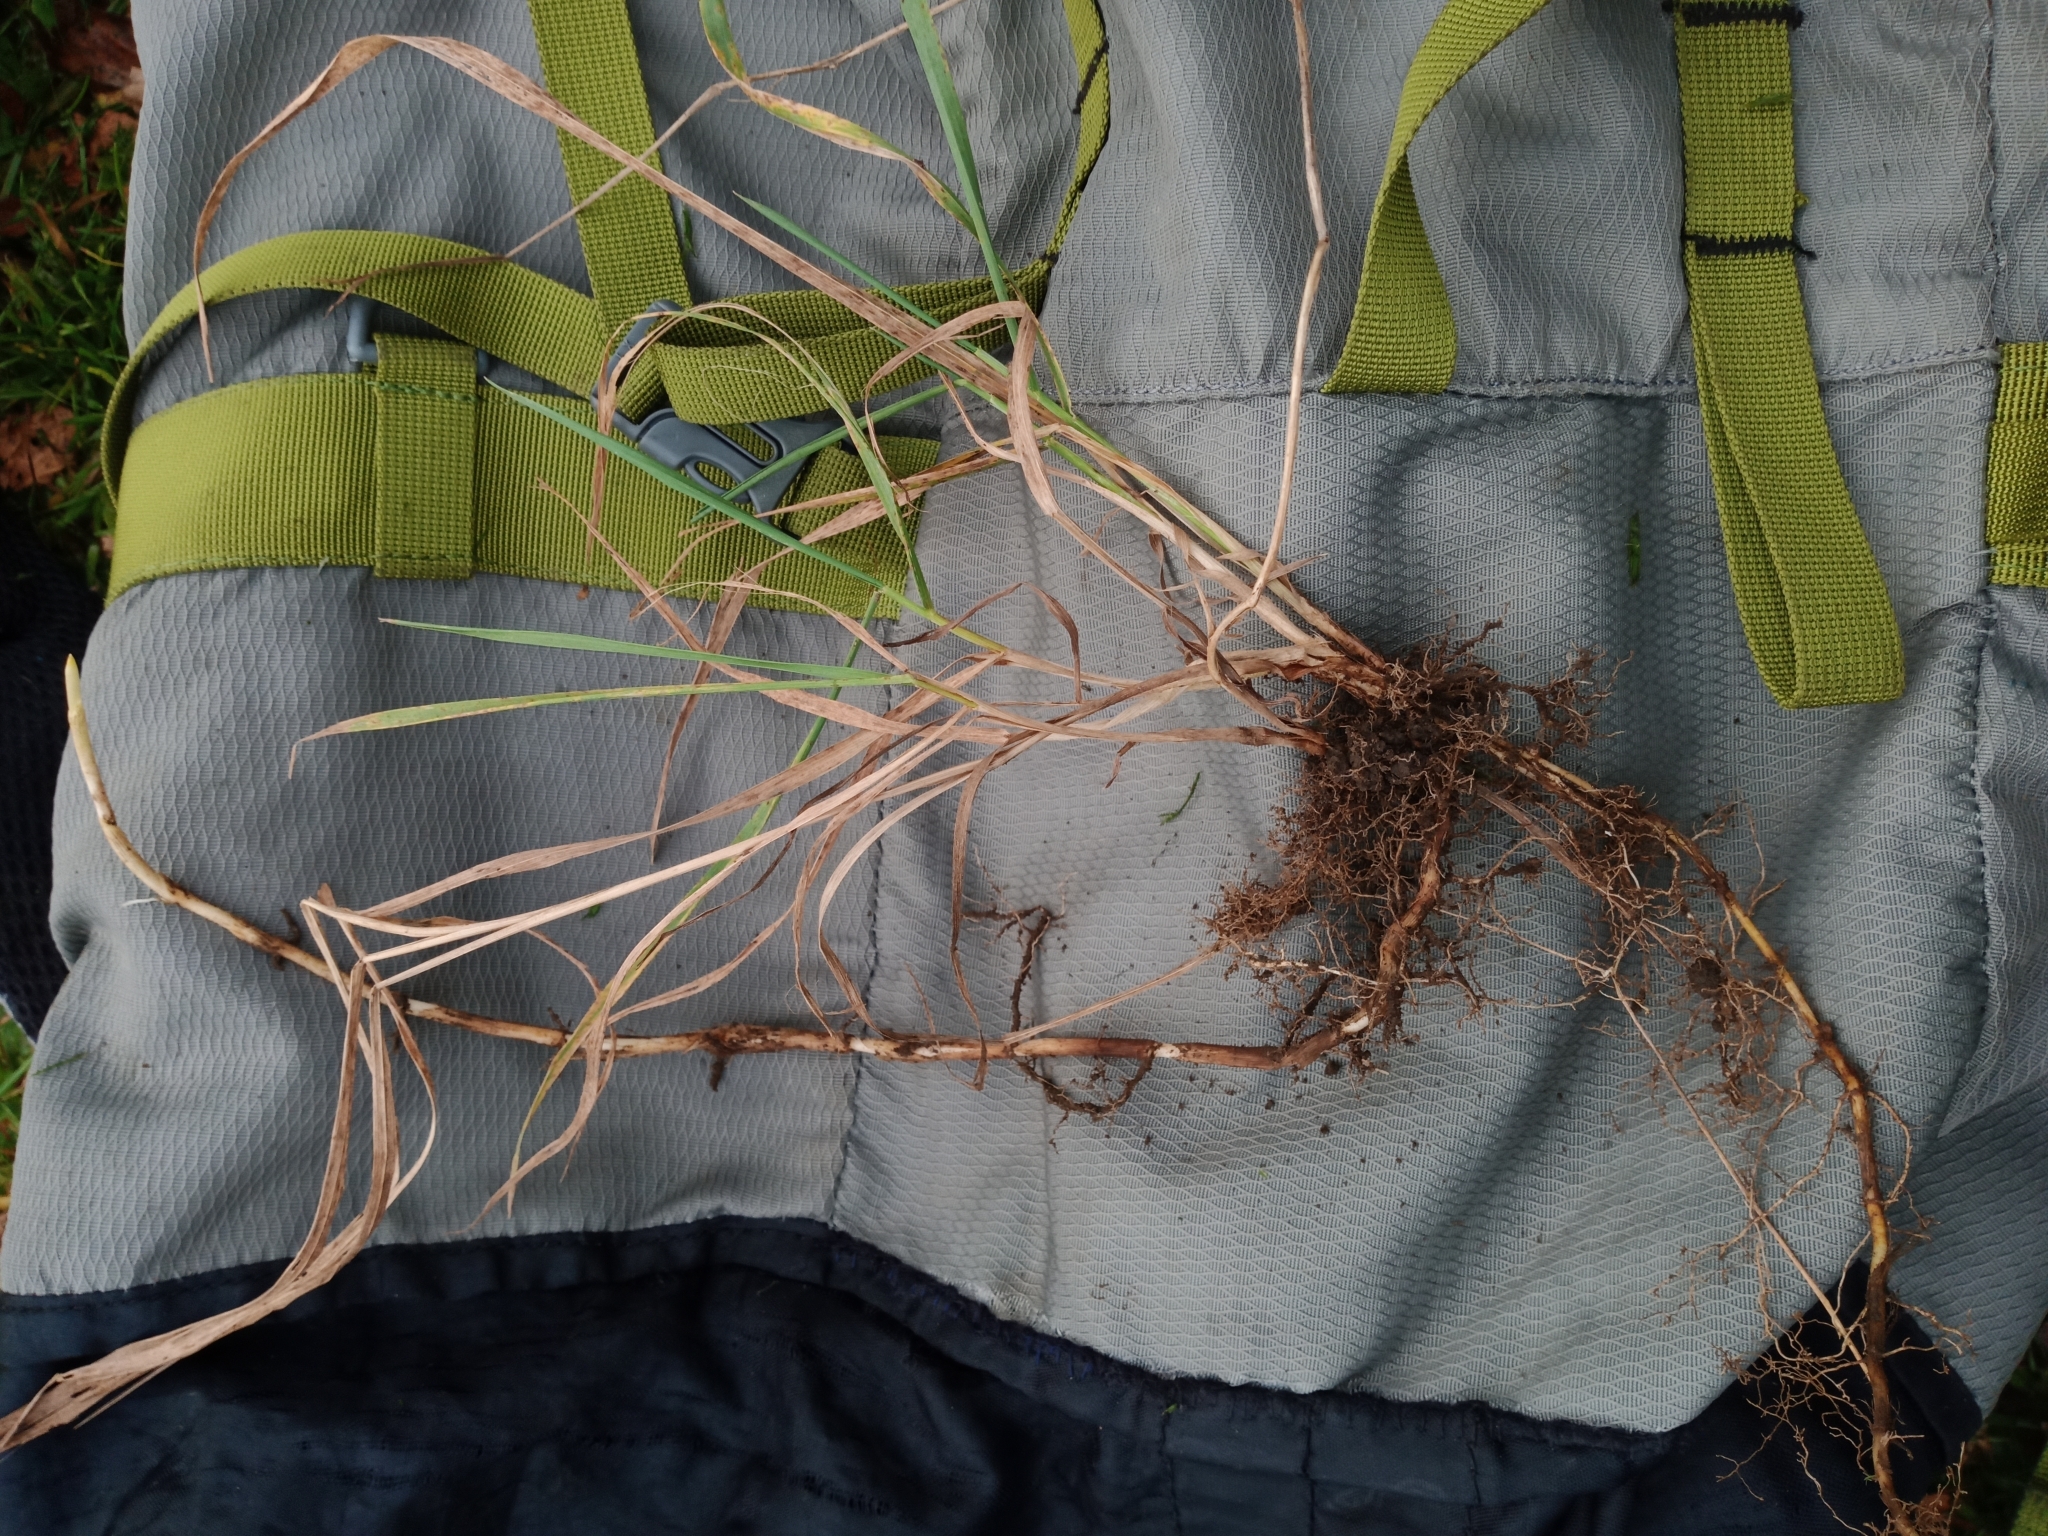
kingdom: Plantae
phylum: Tracheophyta
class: Liliopsida
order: Poales
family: Poaceae
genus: Elymus
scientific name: Elymus repens
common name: Quackgrass
